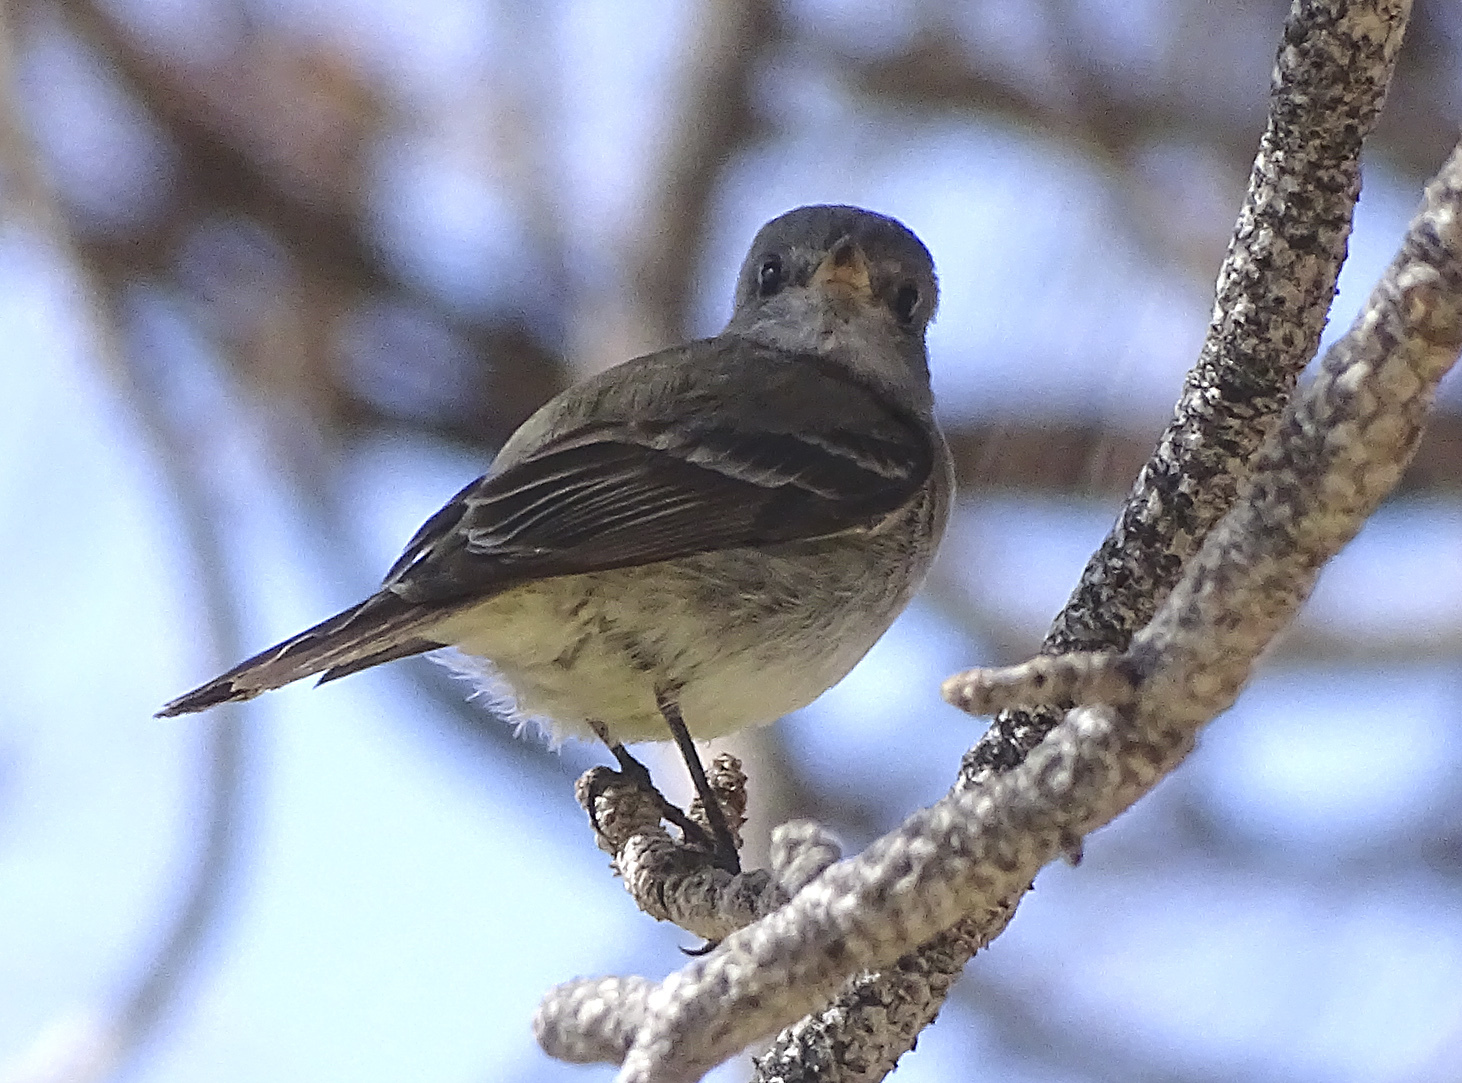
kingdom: Animalia
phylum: Chordata
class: Aves
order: Passeriformes
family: Tyrannidae
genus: Empidonax
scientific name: Empidonax oberholseri
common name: Dusky flycatcher
